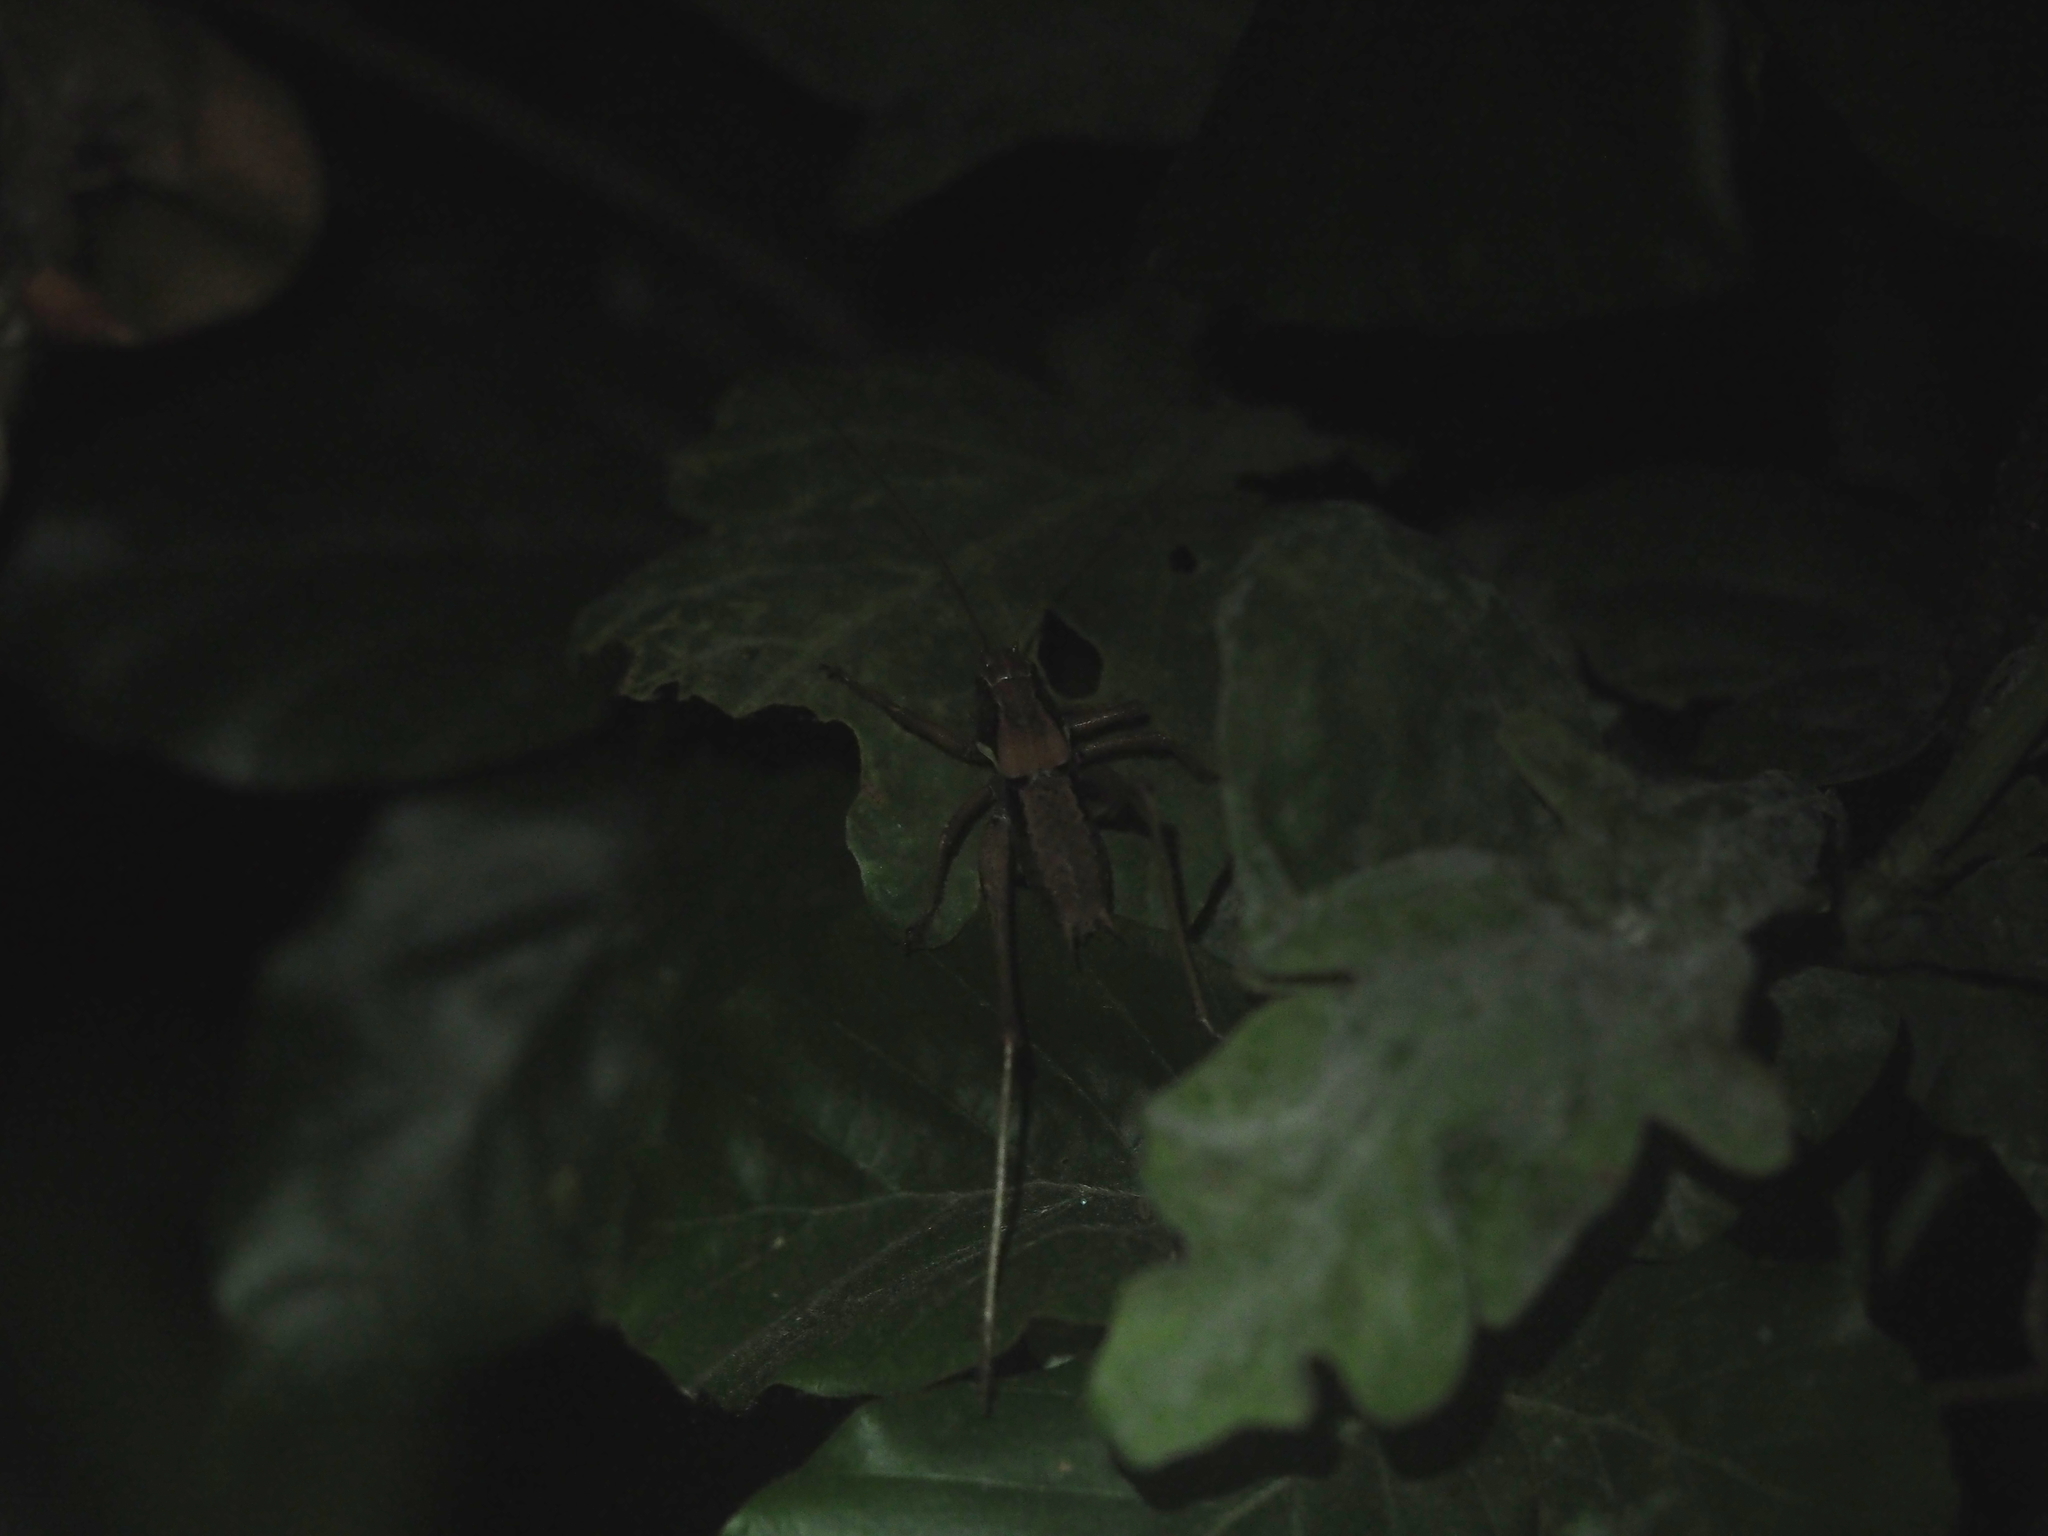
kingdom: Animalia
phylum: Arthropoda
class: Insecta
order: Orthoptera
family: Tettigoniidae
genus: Pholidoptera
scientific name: Pholidoptera aptera
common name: Alpine dark bush-cricket
